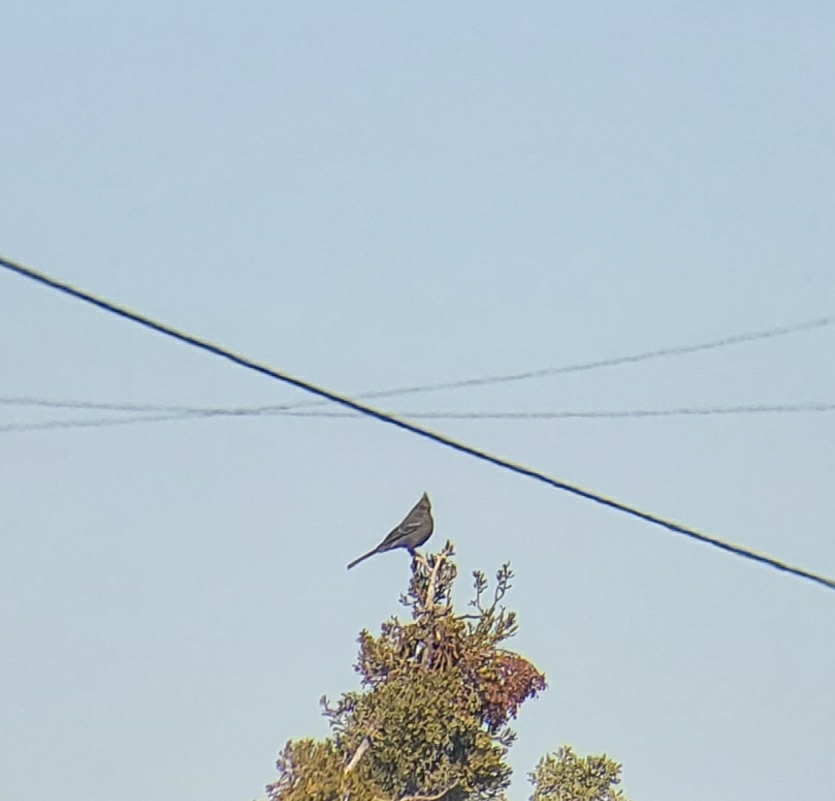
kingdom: Animalia
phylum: Chordata
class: Aves
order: Passeriformes
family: Ptilogonatidae
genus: Phainopepla
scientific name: Phainopepla nitens
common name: Phainopepla
